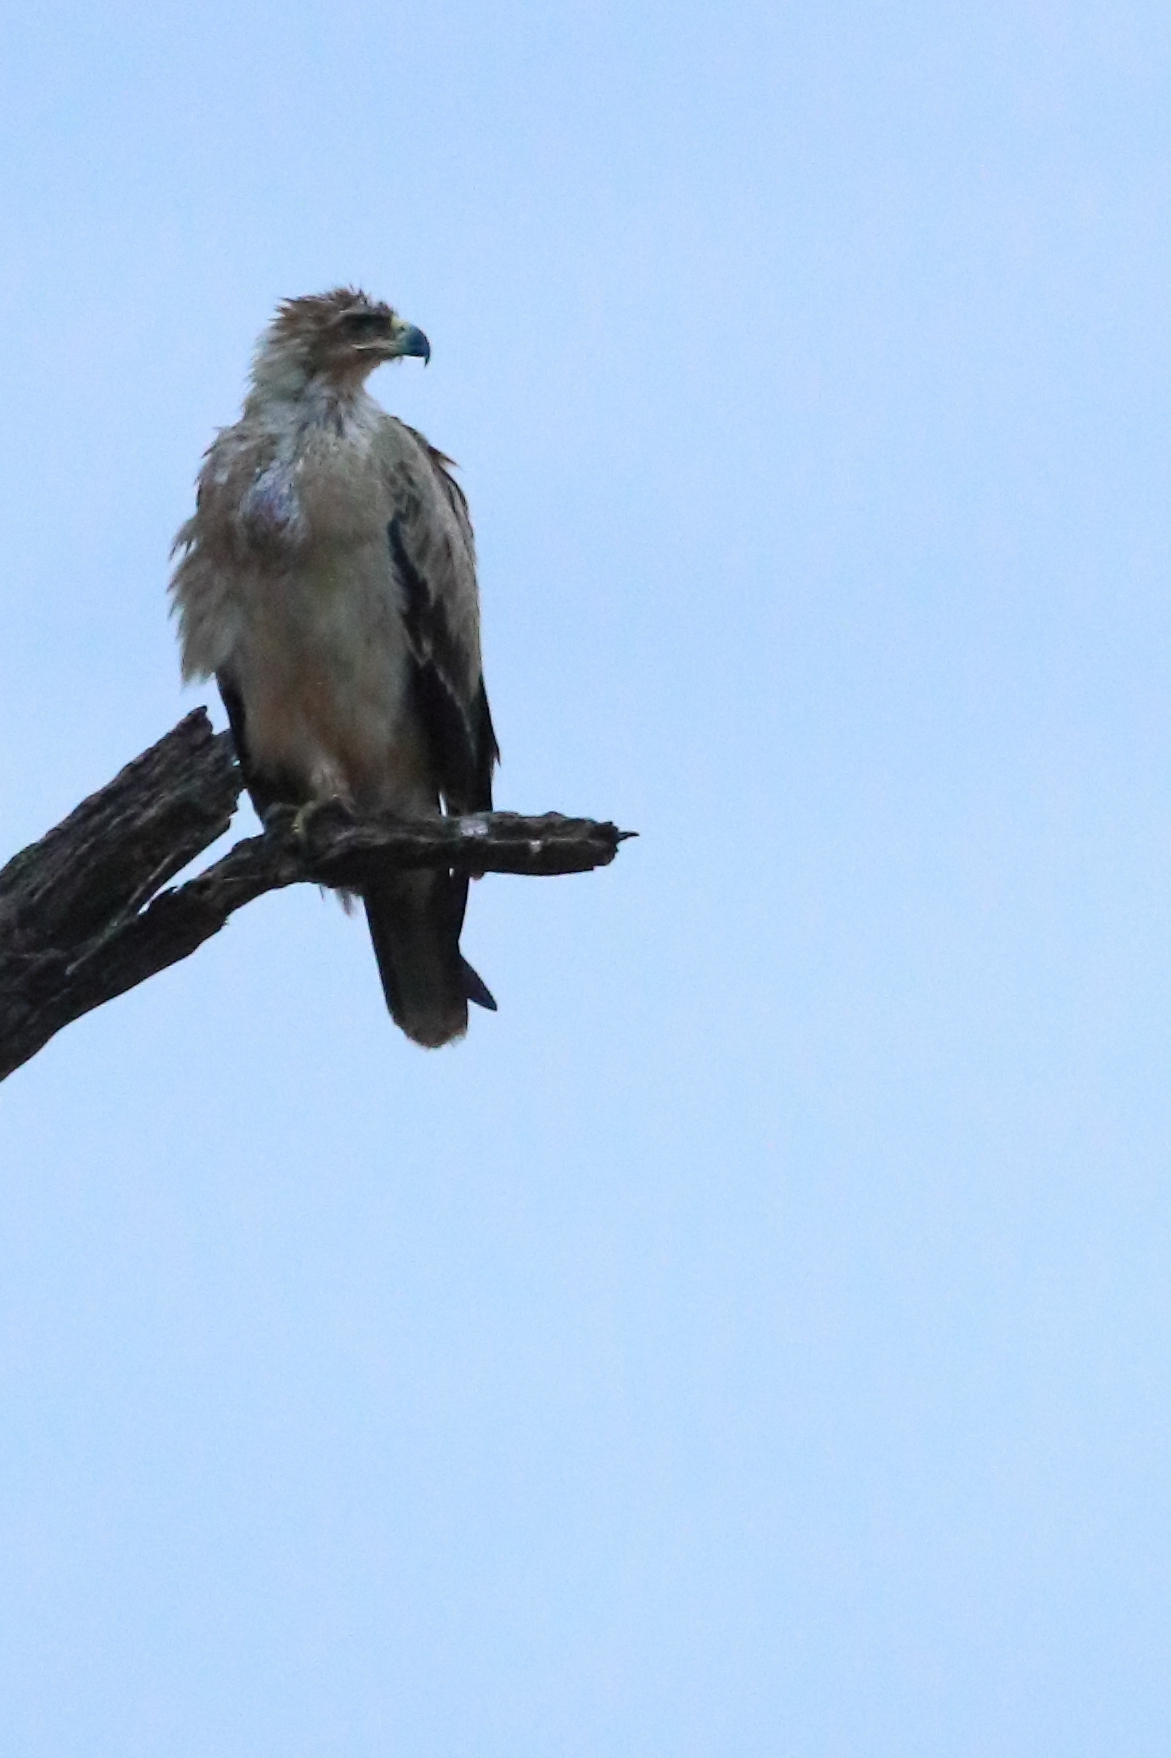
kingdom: Animalia
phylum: Chordata
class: Aves
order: Accipitriformes
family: Accipitridae
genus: Aquila
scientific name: Aquila rapax
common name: Tawny eagle
